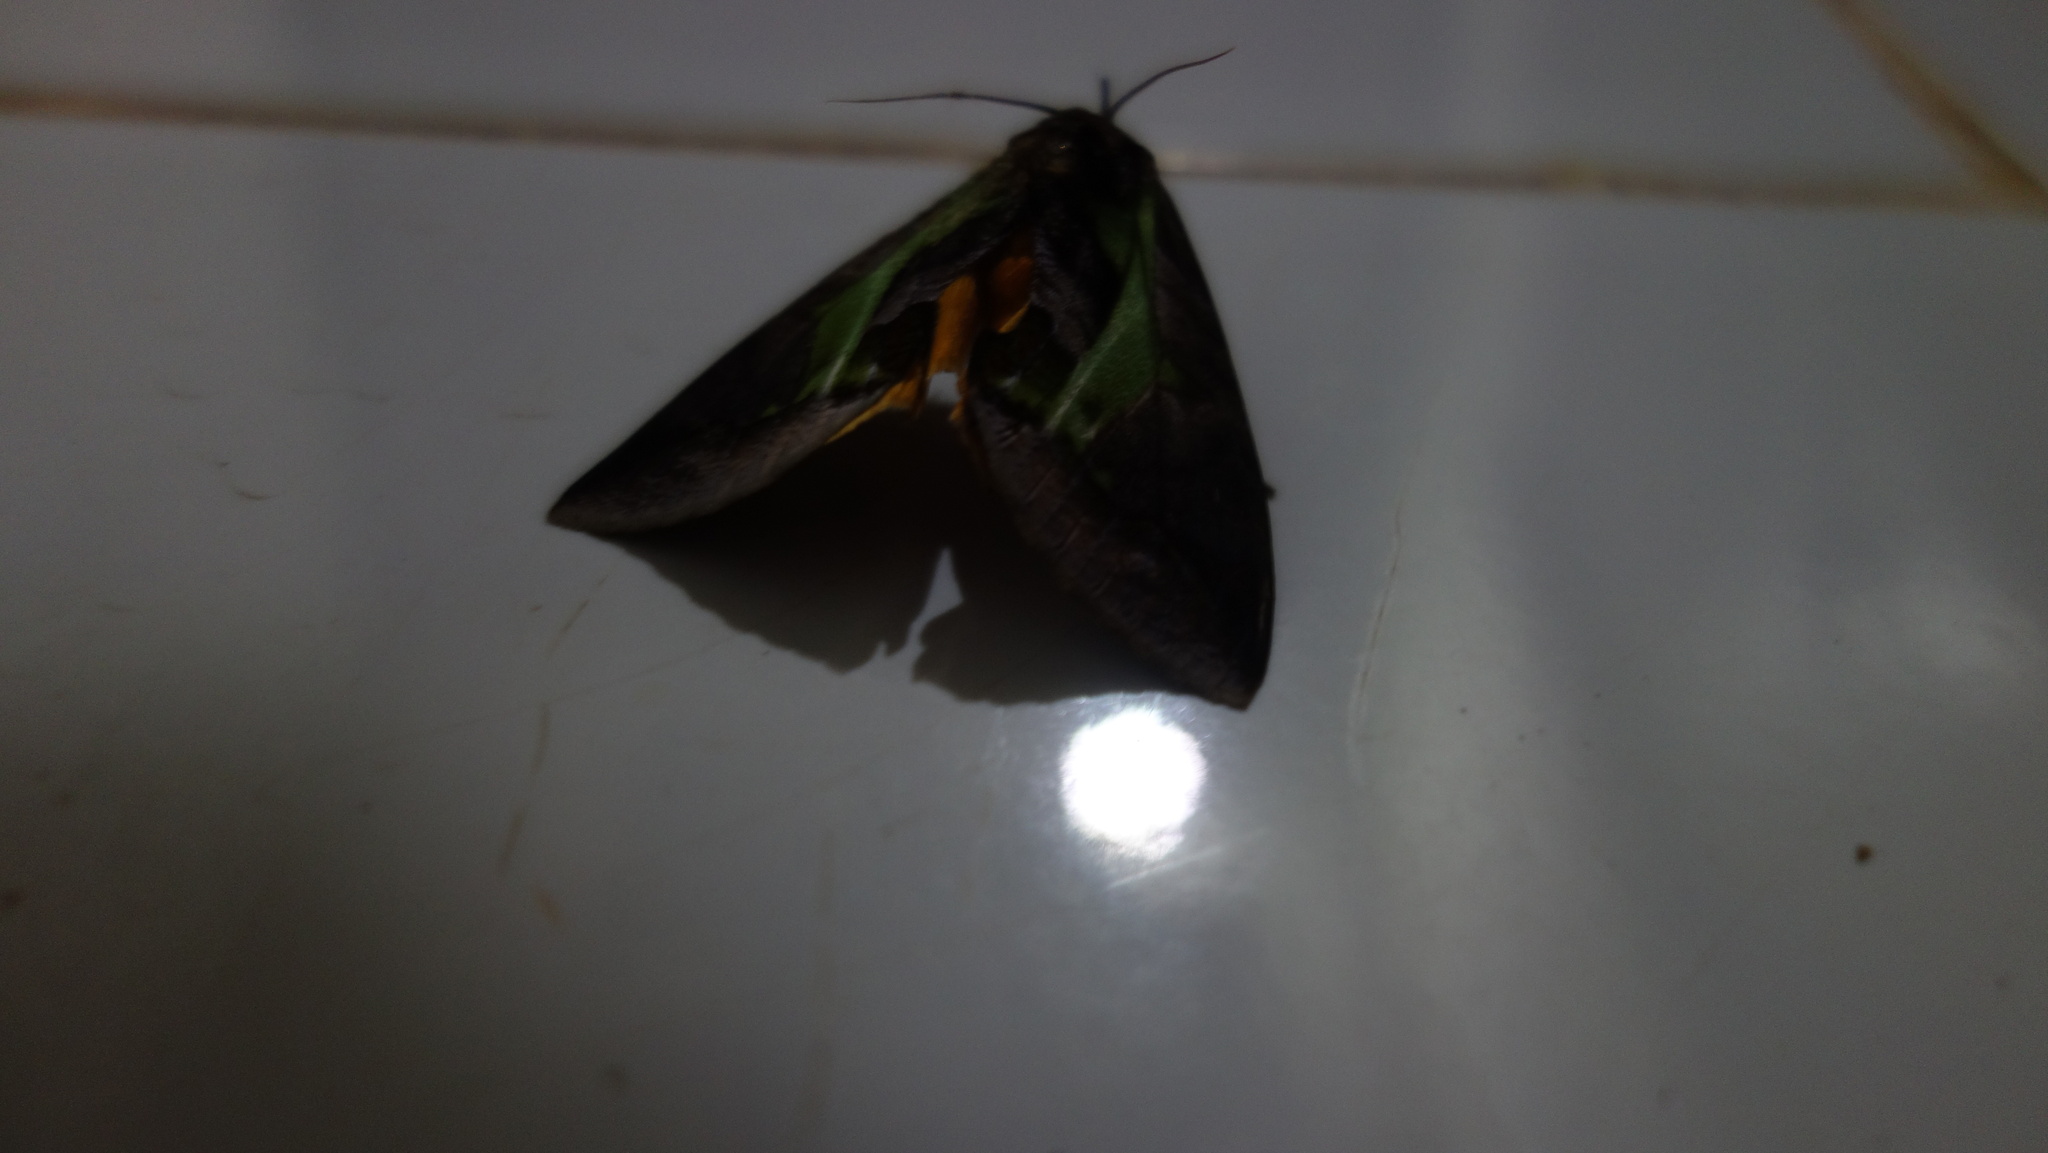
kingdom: Animalia
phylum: Arthropoda
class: Insecta
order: Lepidoptera
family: Erebidae
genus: Eudocima
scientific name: Eudocima homaena
